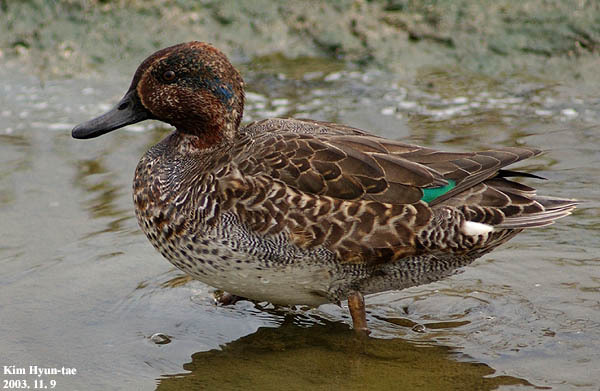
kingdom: Animalia
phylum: Chordata
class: Aves
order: Anseriformes
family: Anatidae
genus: Anas
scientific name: Anas crecca
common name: Eurasian teal
